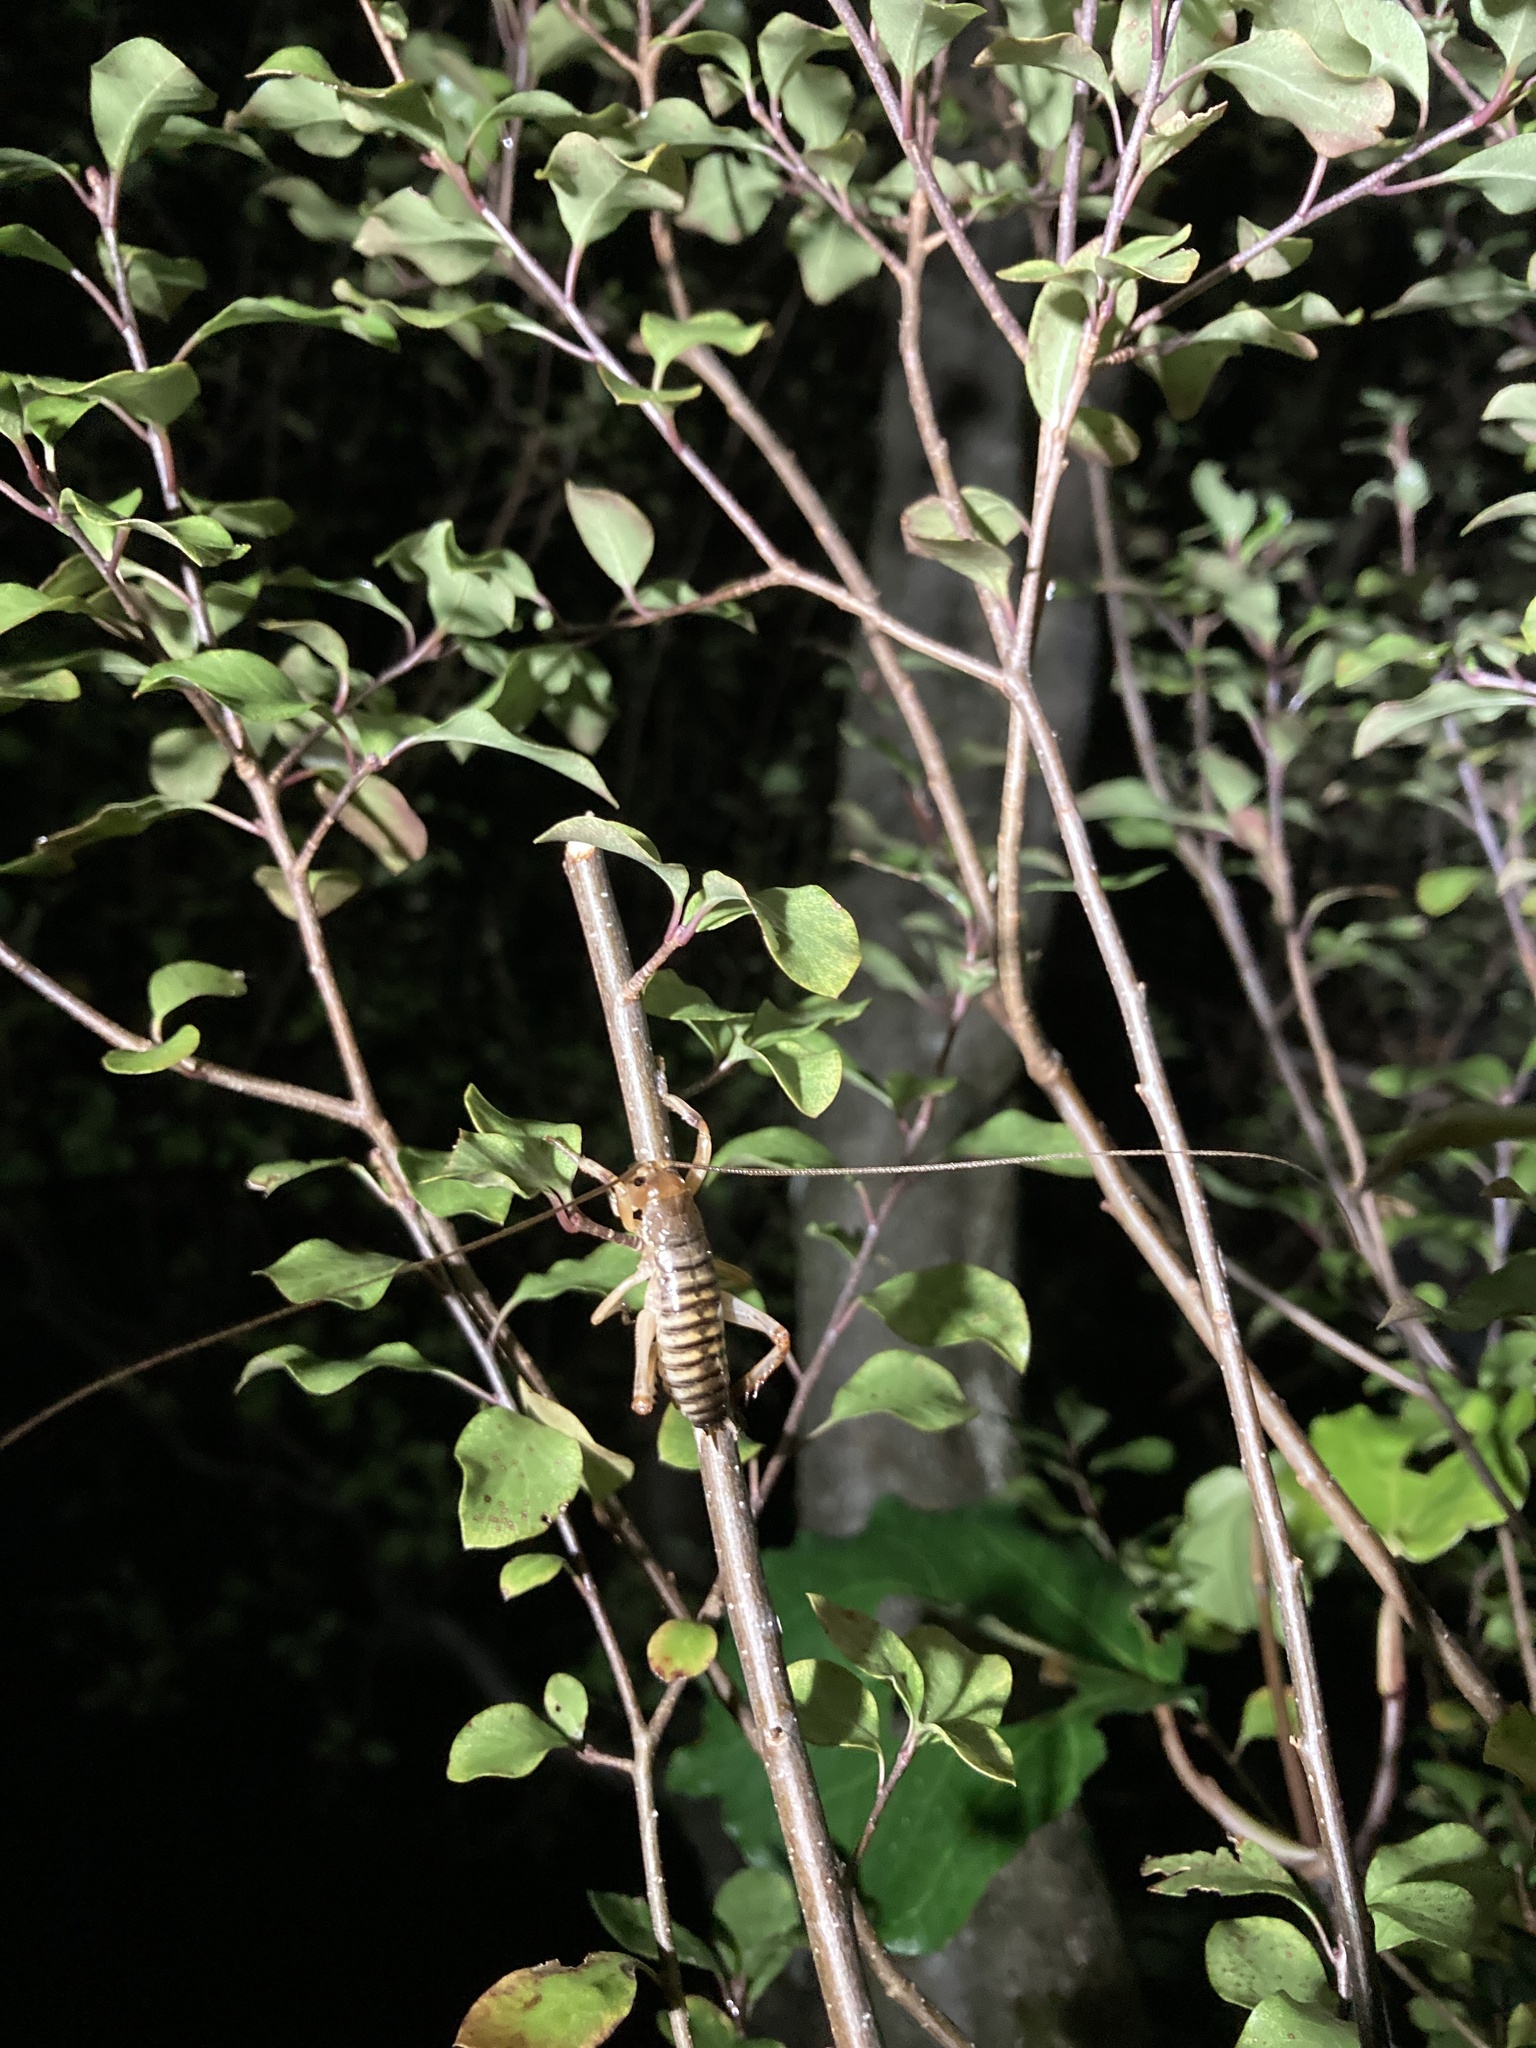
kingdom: Animalia
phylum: Arthropoda
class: Insecta
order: Orthoptera
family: Anostostomatidae
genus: Hemideina
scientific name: Hemideina crassidens
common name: Wellington tree weta
